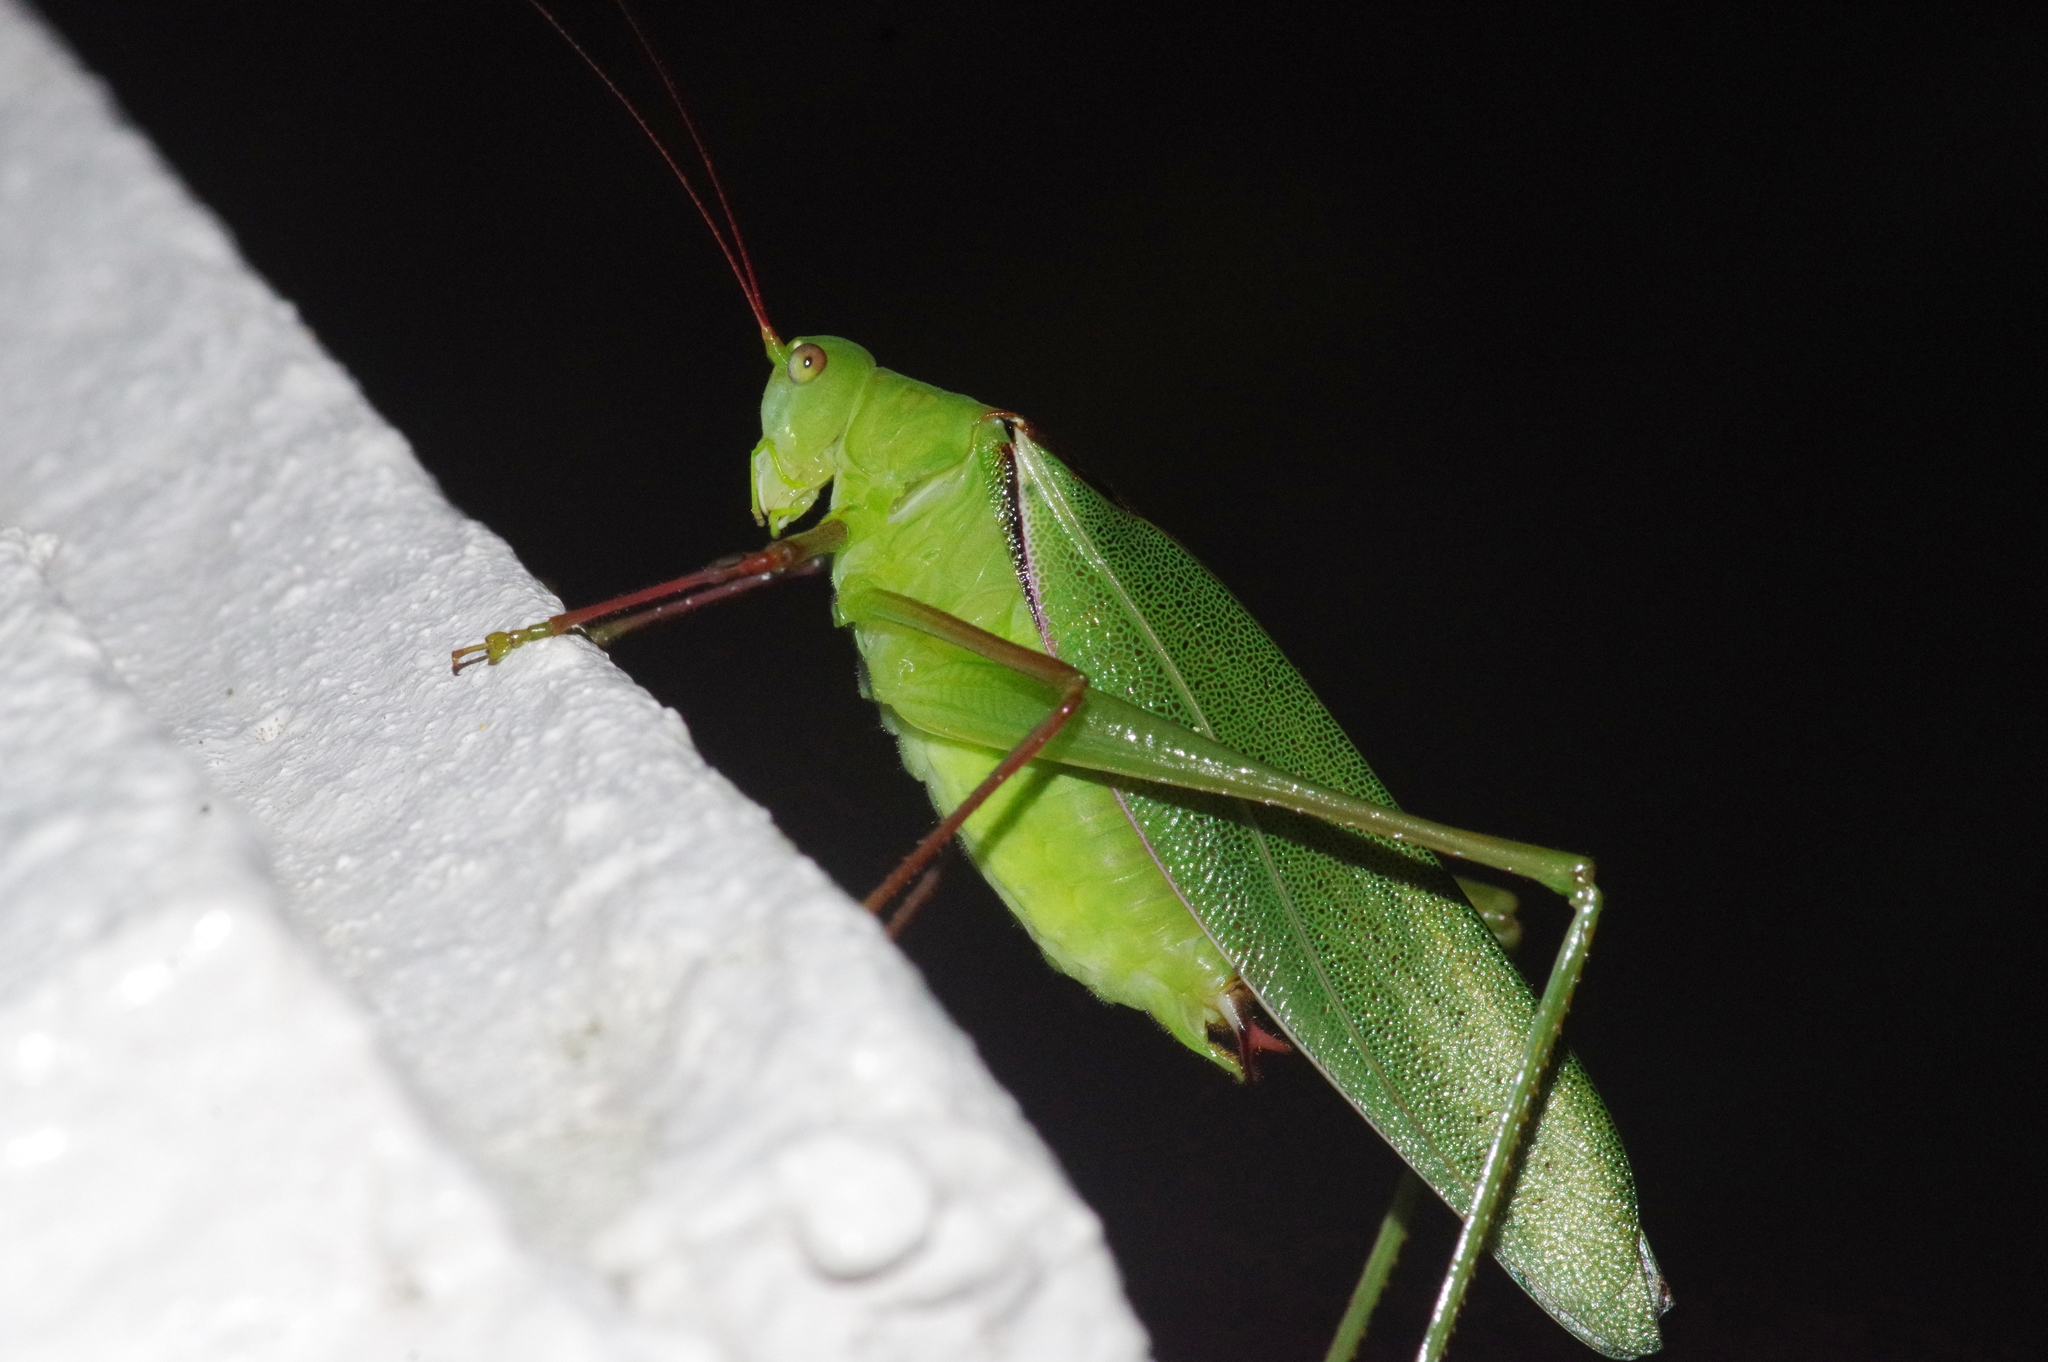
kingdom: Animalia
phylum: Arthropoda
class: Insecta
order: Orthoptera
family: Tettigoniidae
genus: Psyrana
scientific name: Psyrana ryukyuensis
